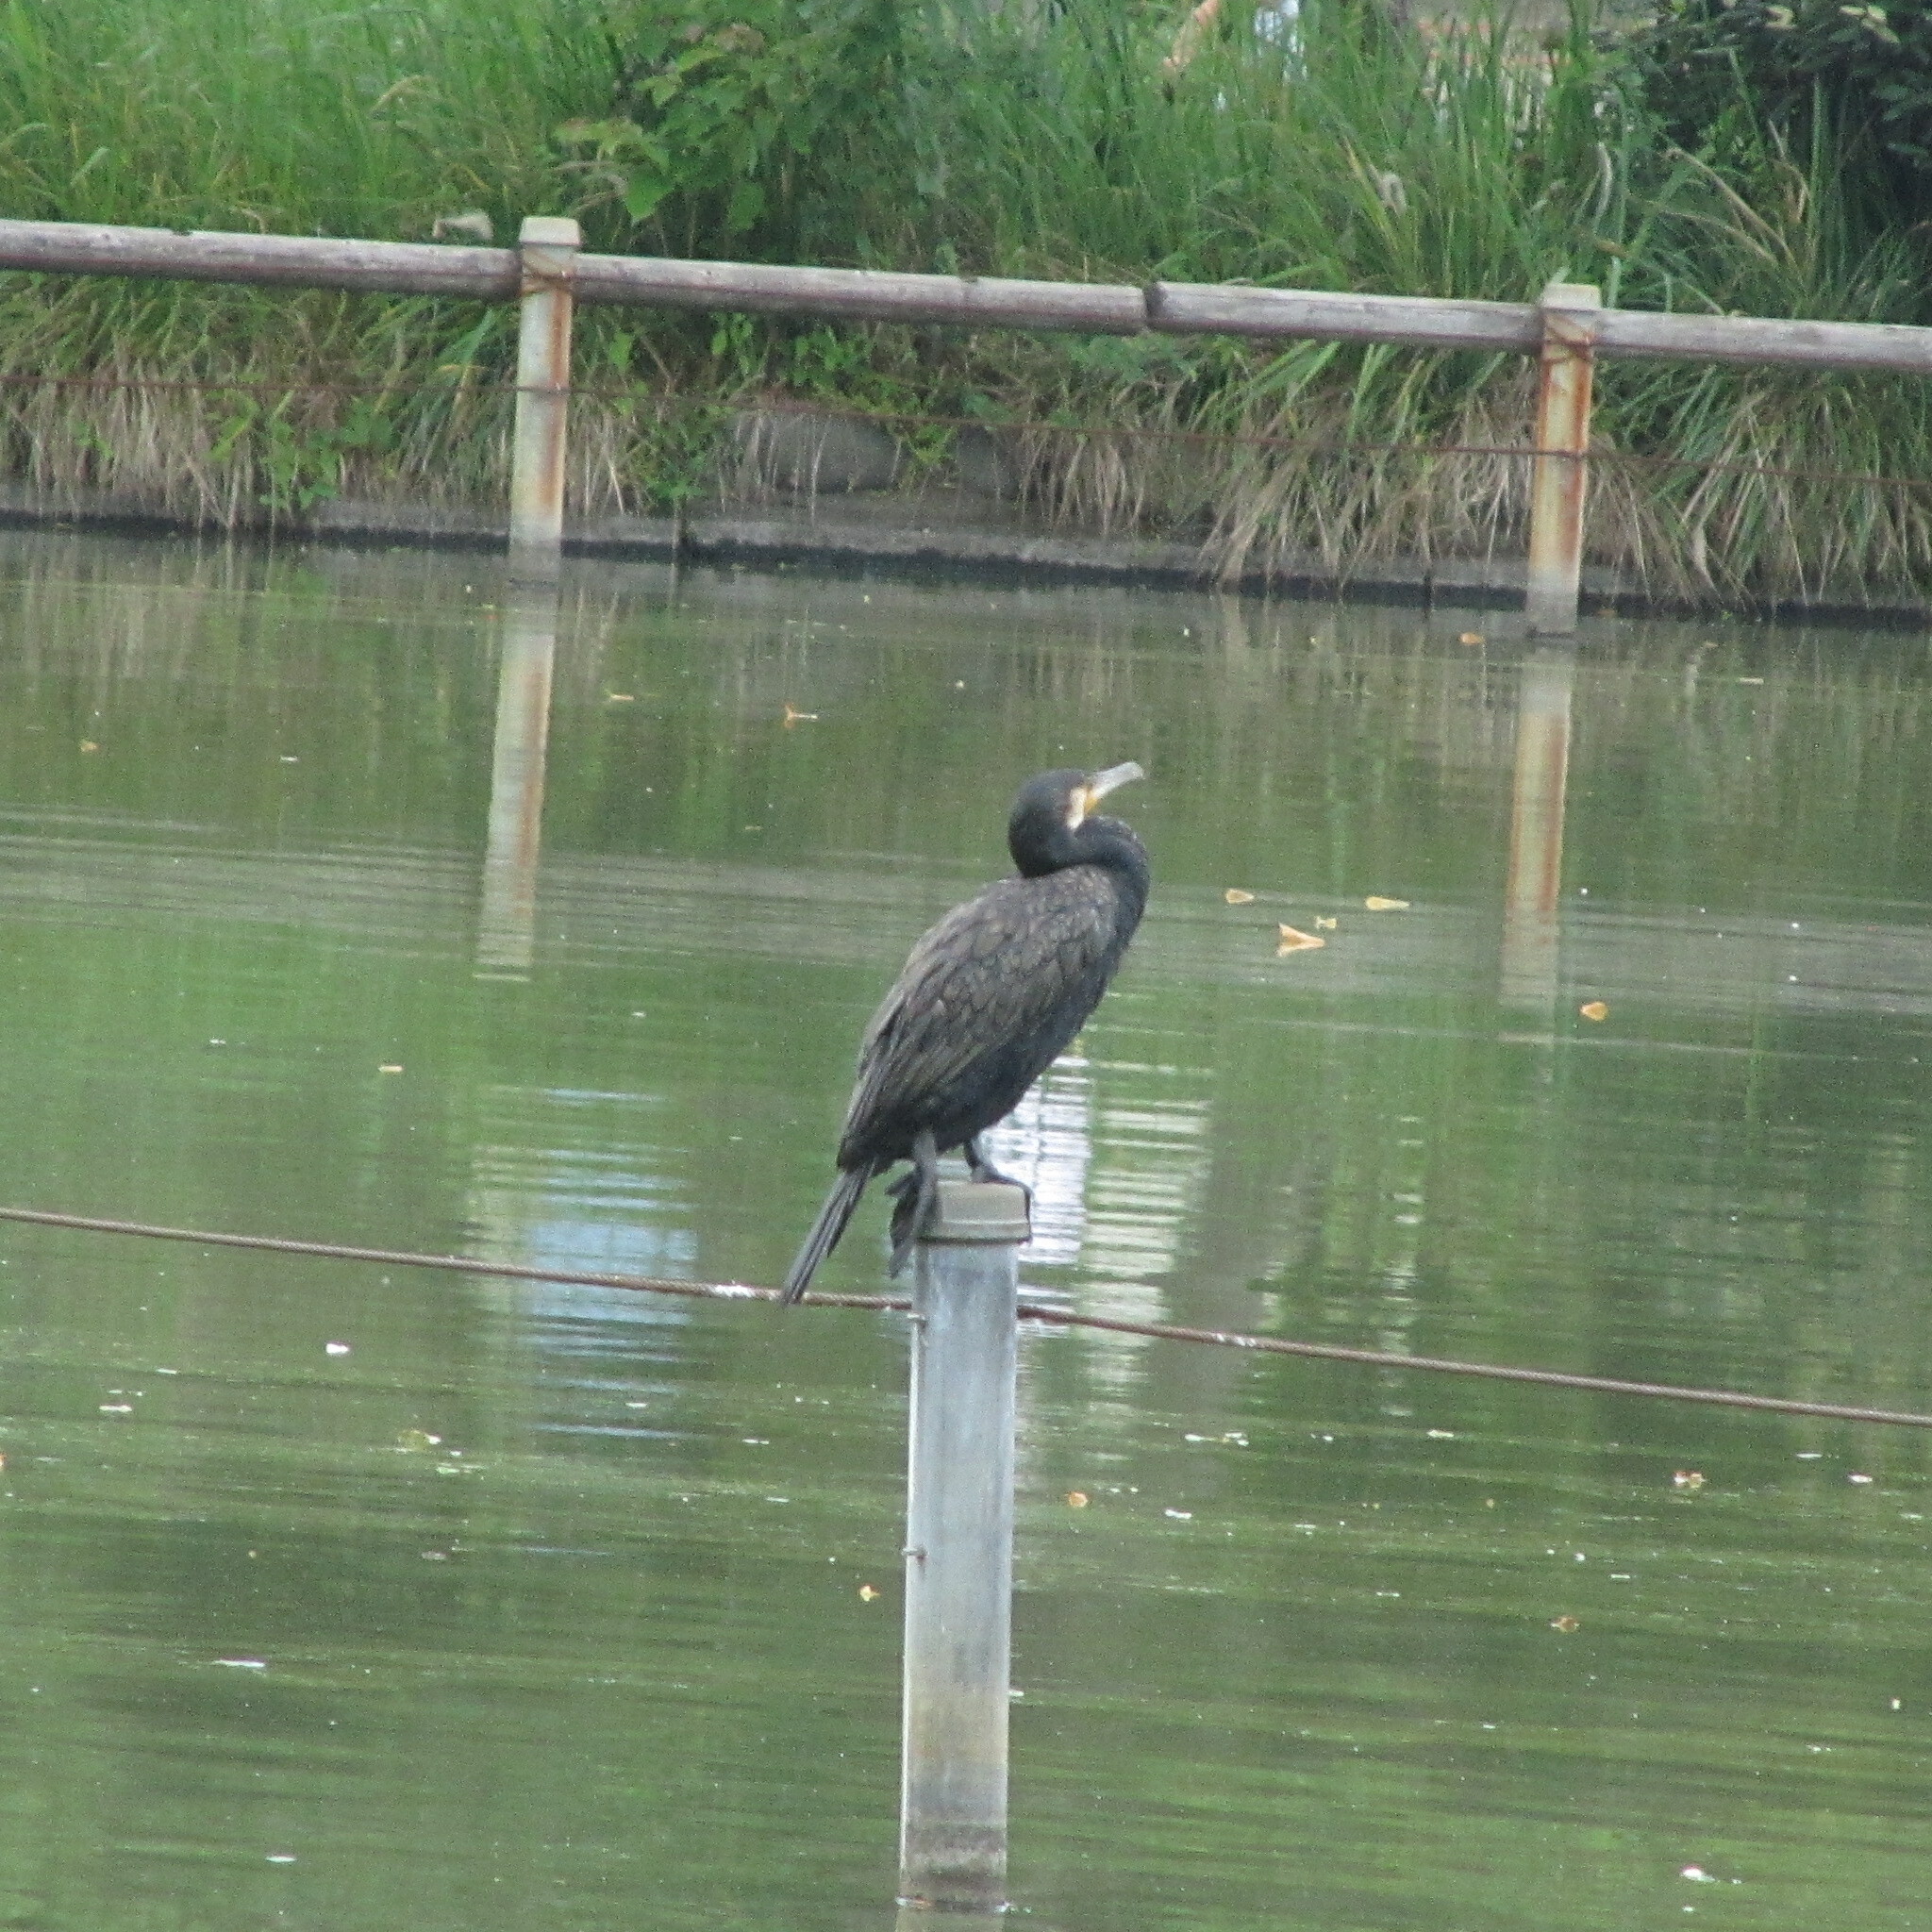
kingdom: Animalia
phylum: Chordata
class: Aves
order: Suliformes
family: Phalacrocoracidae
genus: Phalacrocorax
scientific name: Phalacrocorax carbo
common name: Great cormorant
